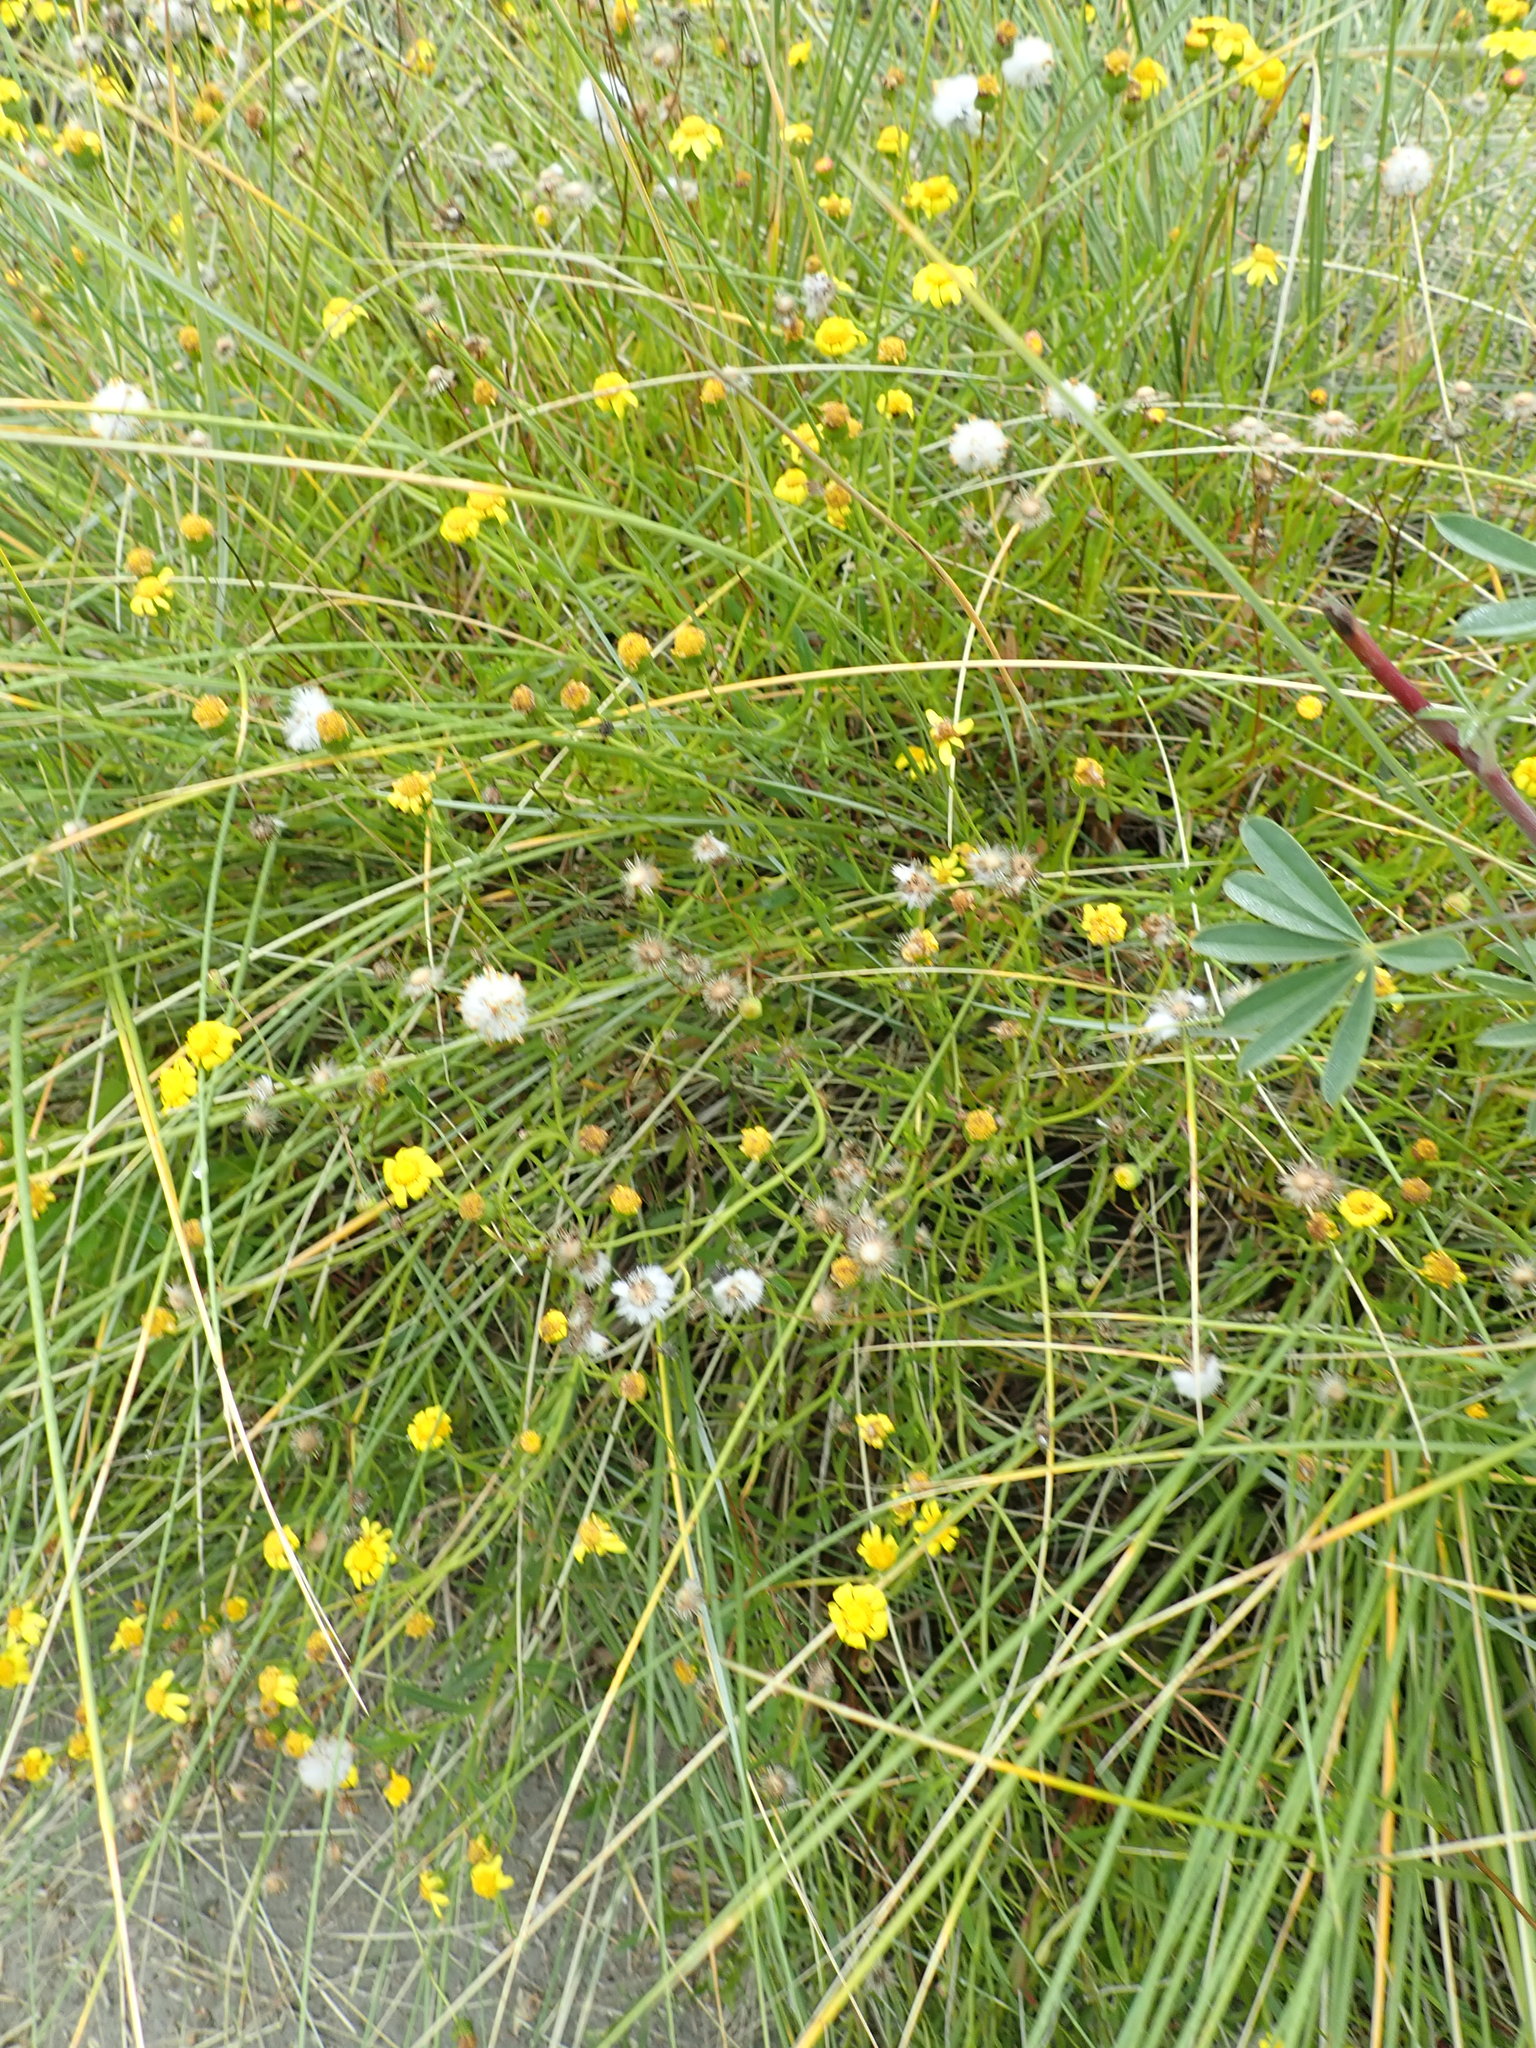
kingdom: Plantae
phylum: Tracheophyta
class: Magnoliopsida
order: Asterales
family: Asteraceae
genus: Senecio
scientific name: Senecio skirrhodon
